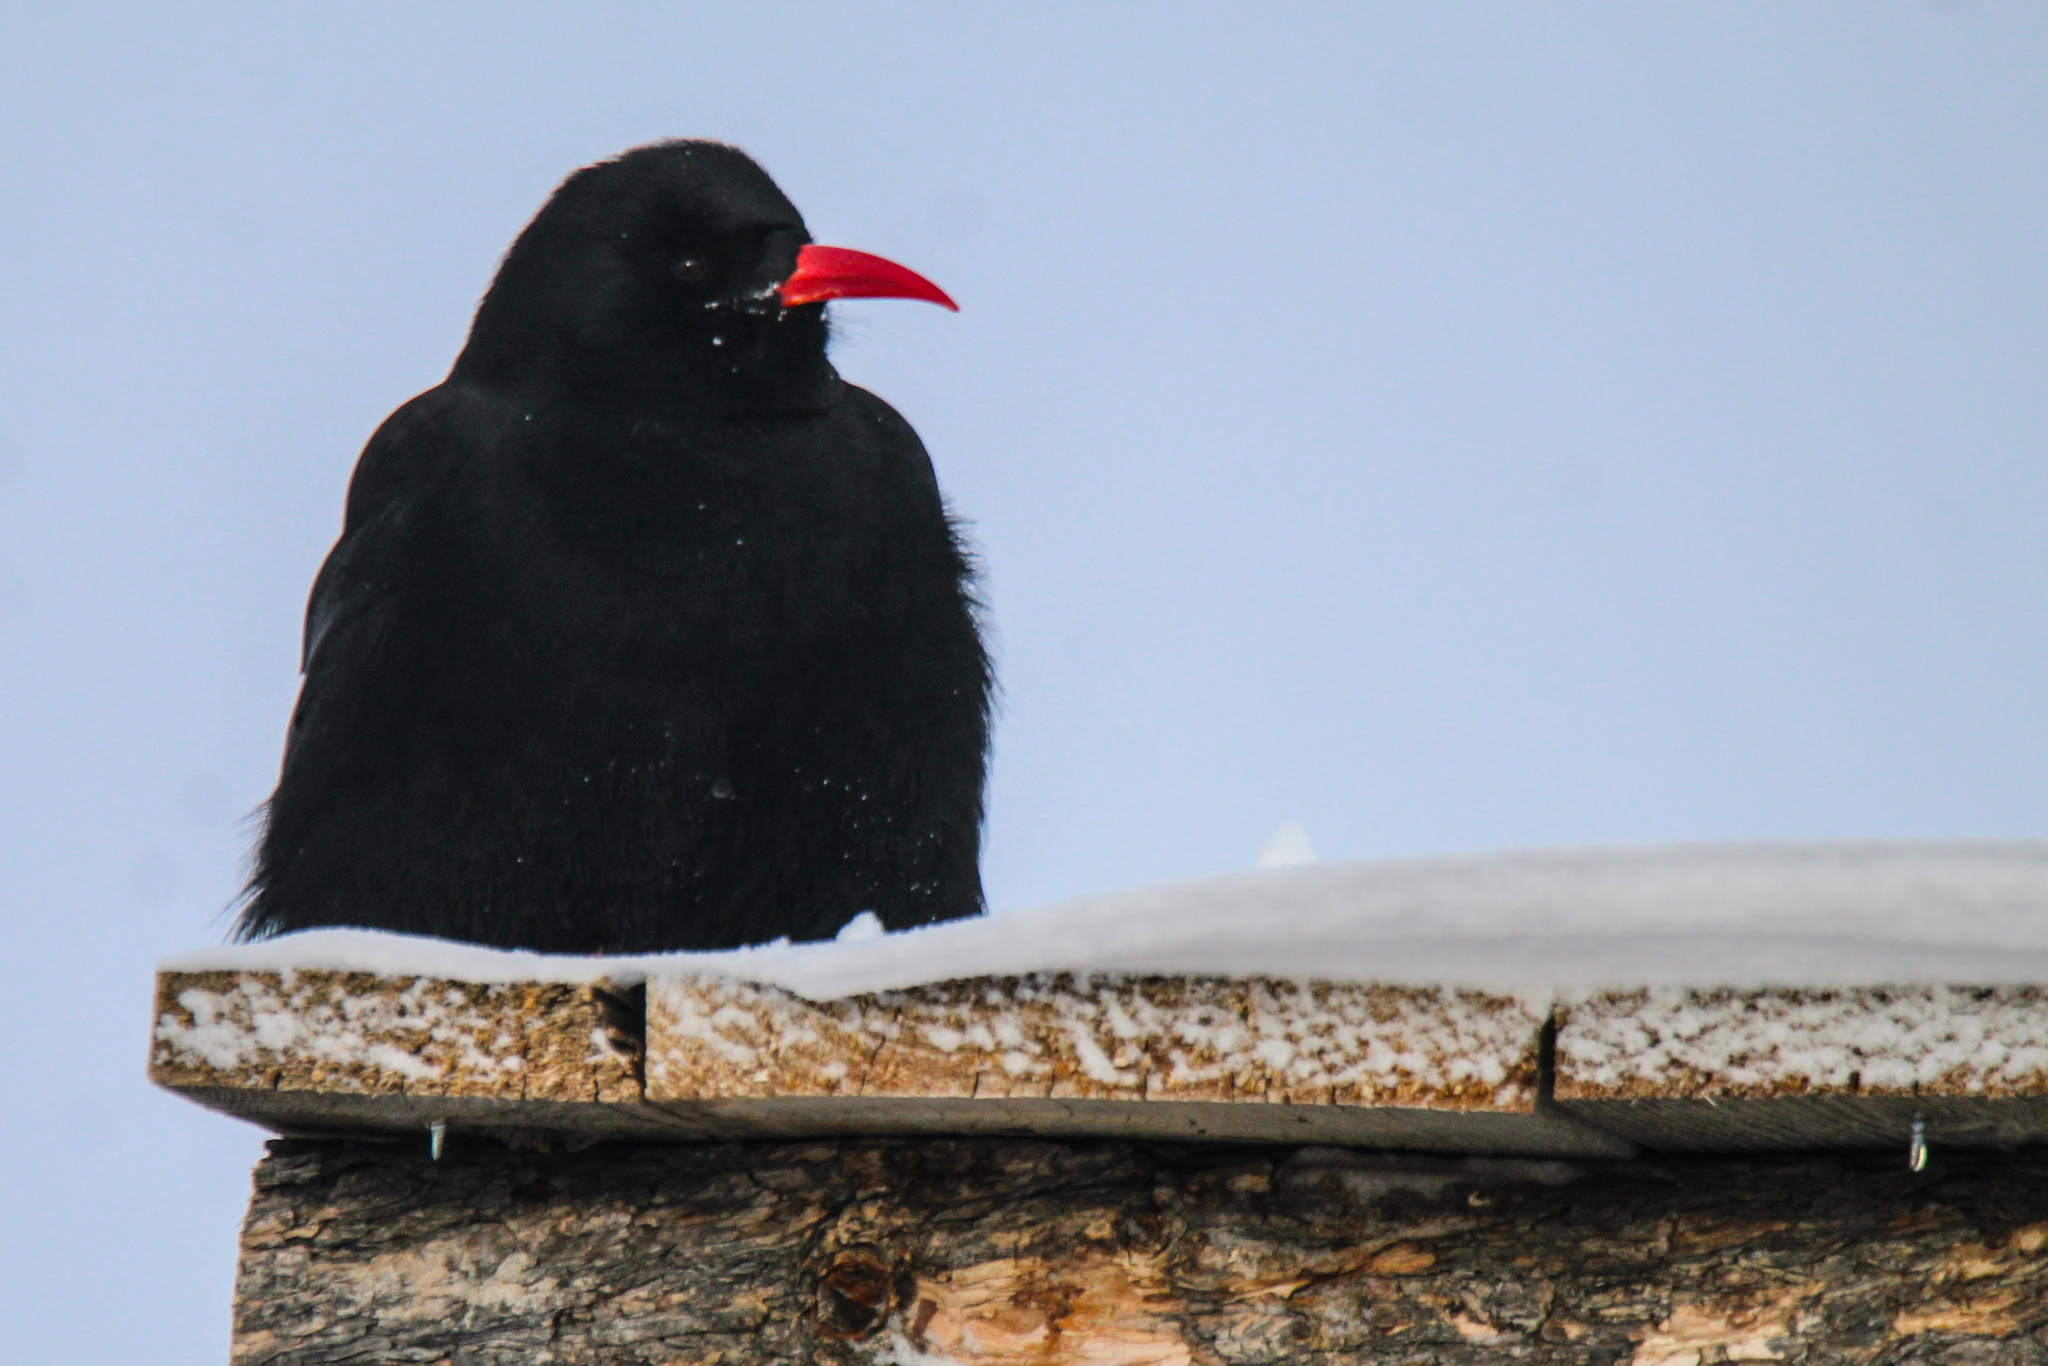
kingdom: Animalia
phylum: Chordata
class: Aves
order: Passeriformes
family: Corvidae
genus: Pyrrhocorax
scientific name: Pyrrhocorax pyrrhocorax
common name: Red-billed chough
